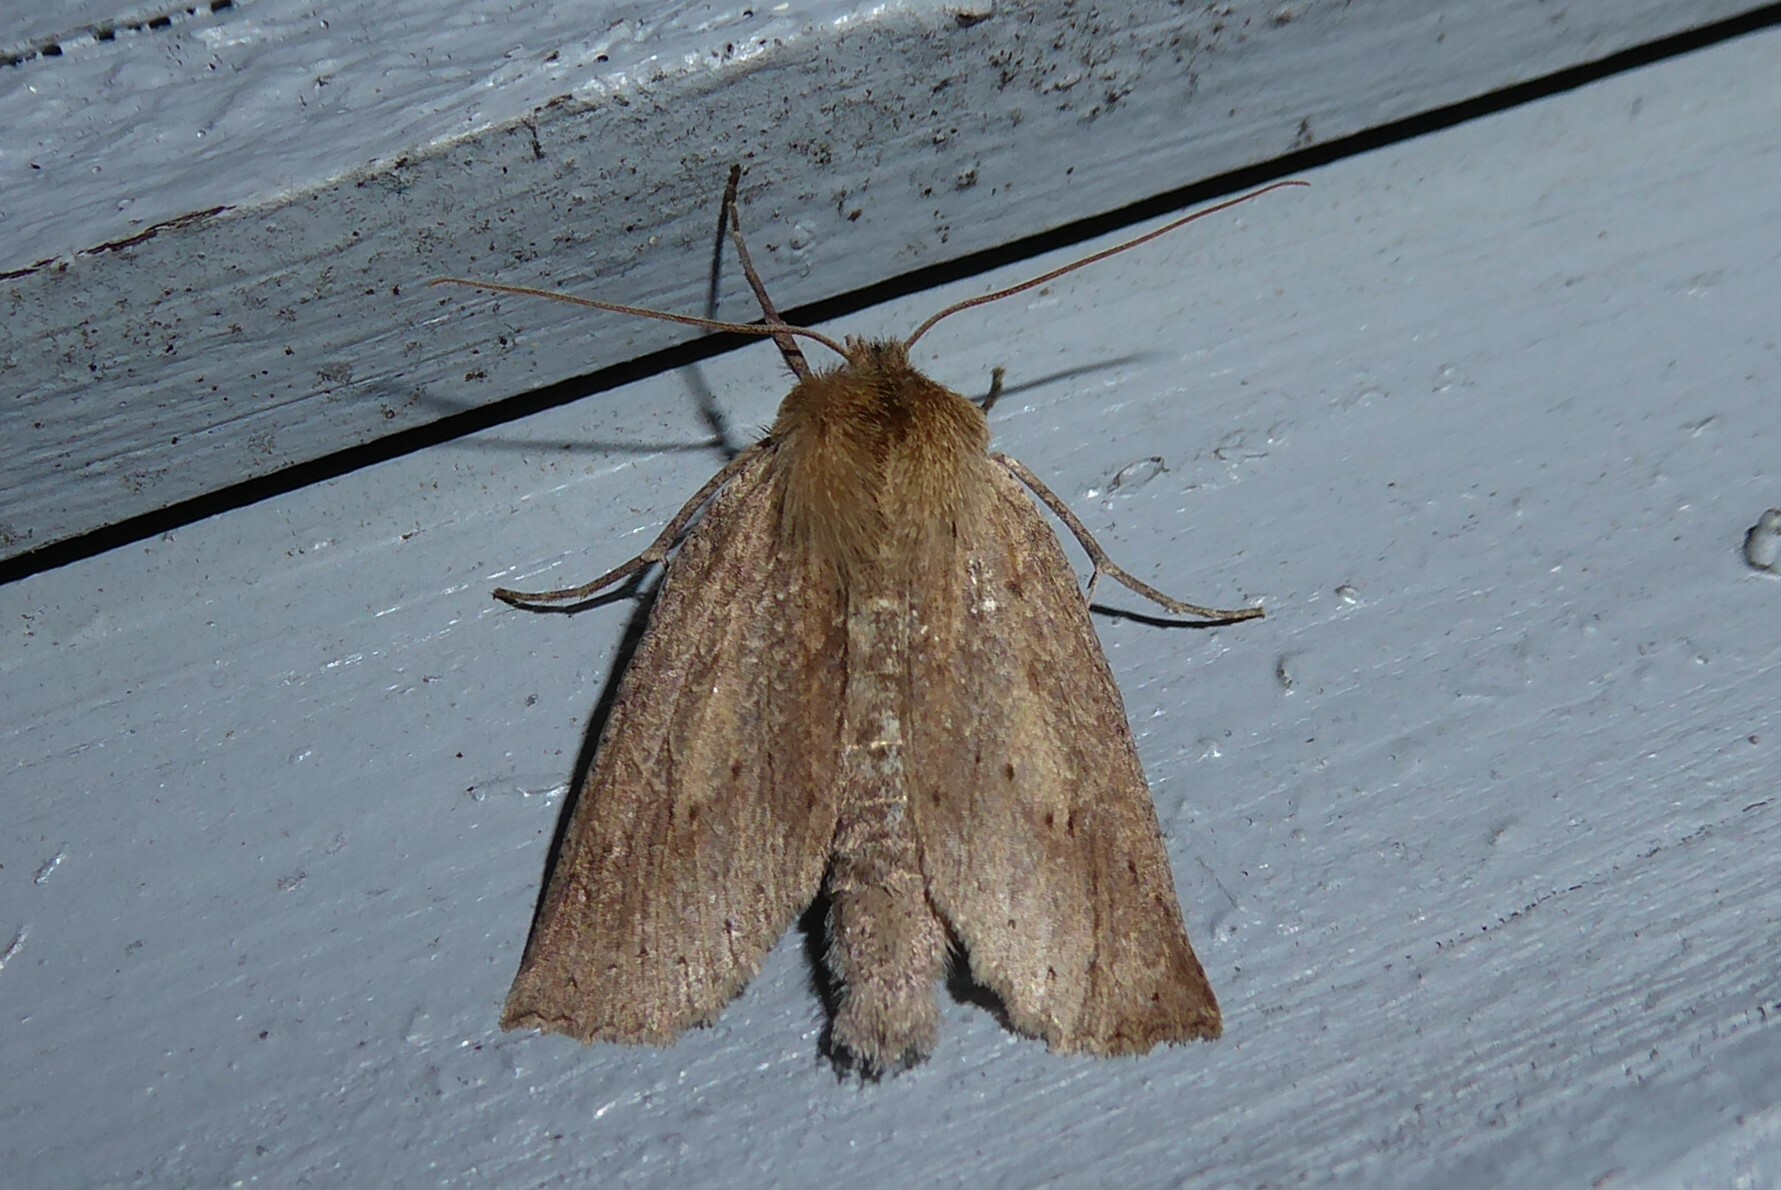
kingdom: Animalia
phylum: Arthropoda
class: Insecta
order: Lepidoptera
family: Geometridae
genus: Declana
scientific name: Declana leptomera
